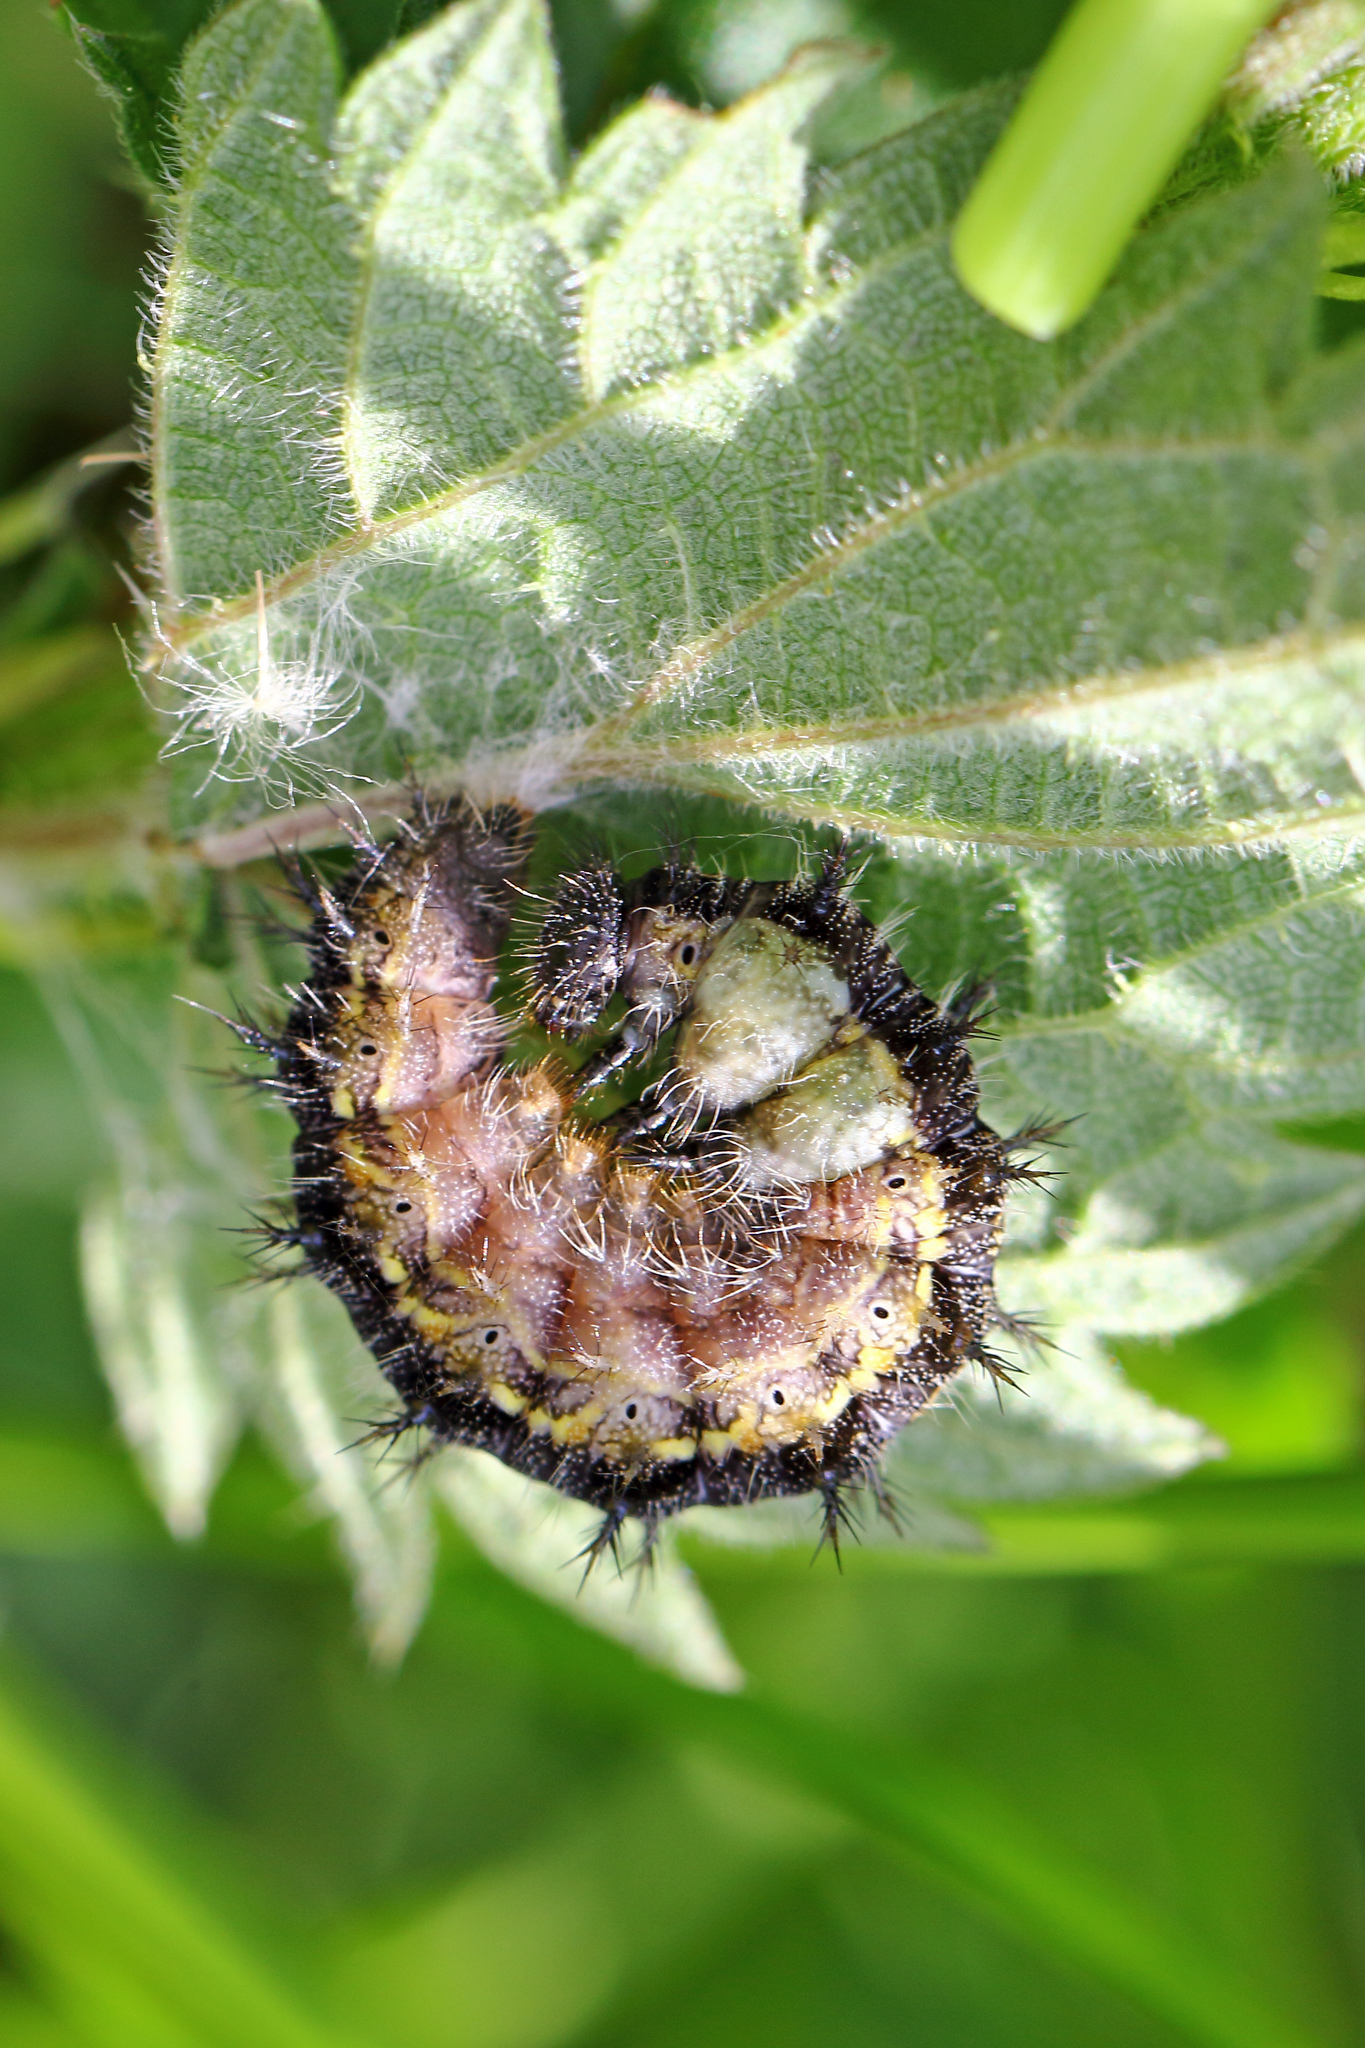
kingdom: Animalia
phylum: Arthropoda
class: Insecta
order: Lepidoptera
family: Nymphalidae
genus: Aglais
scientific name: Aglais urticae
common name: Small tortoiseshell
